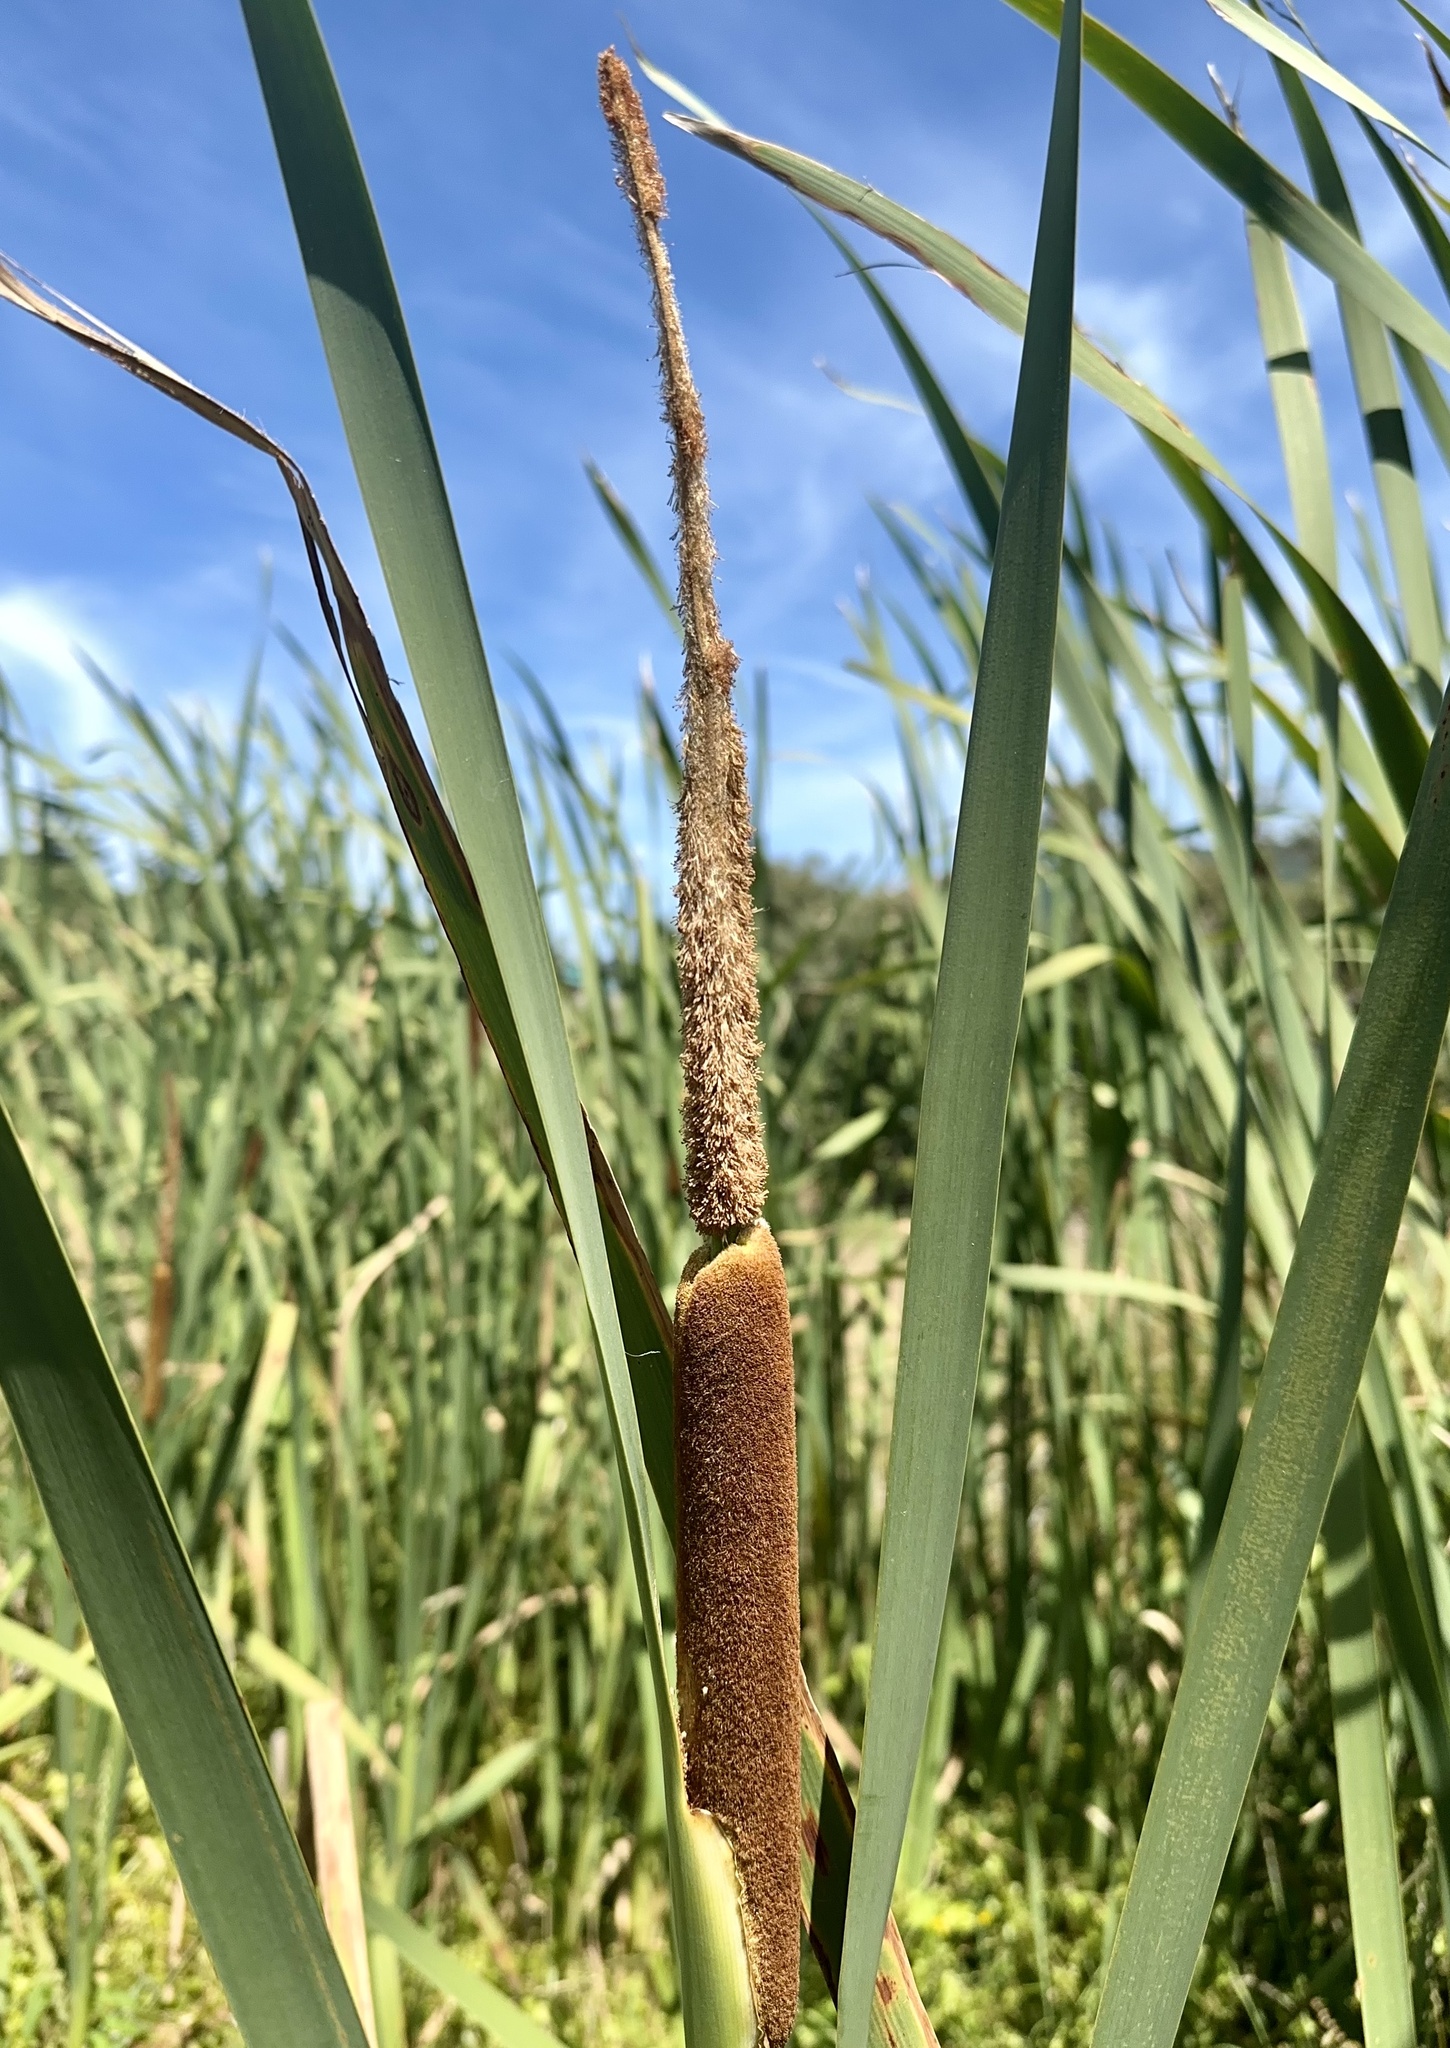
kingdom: Plantae
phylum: Tracheophyta
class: Liliopsida
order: Poales
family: Typhaceae
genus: Typha
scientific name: Typha orientalis
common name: Bullrush
